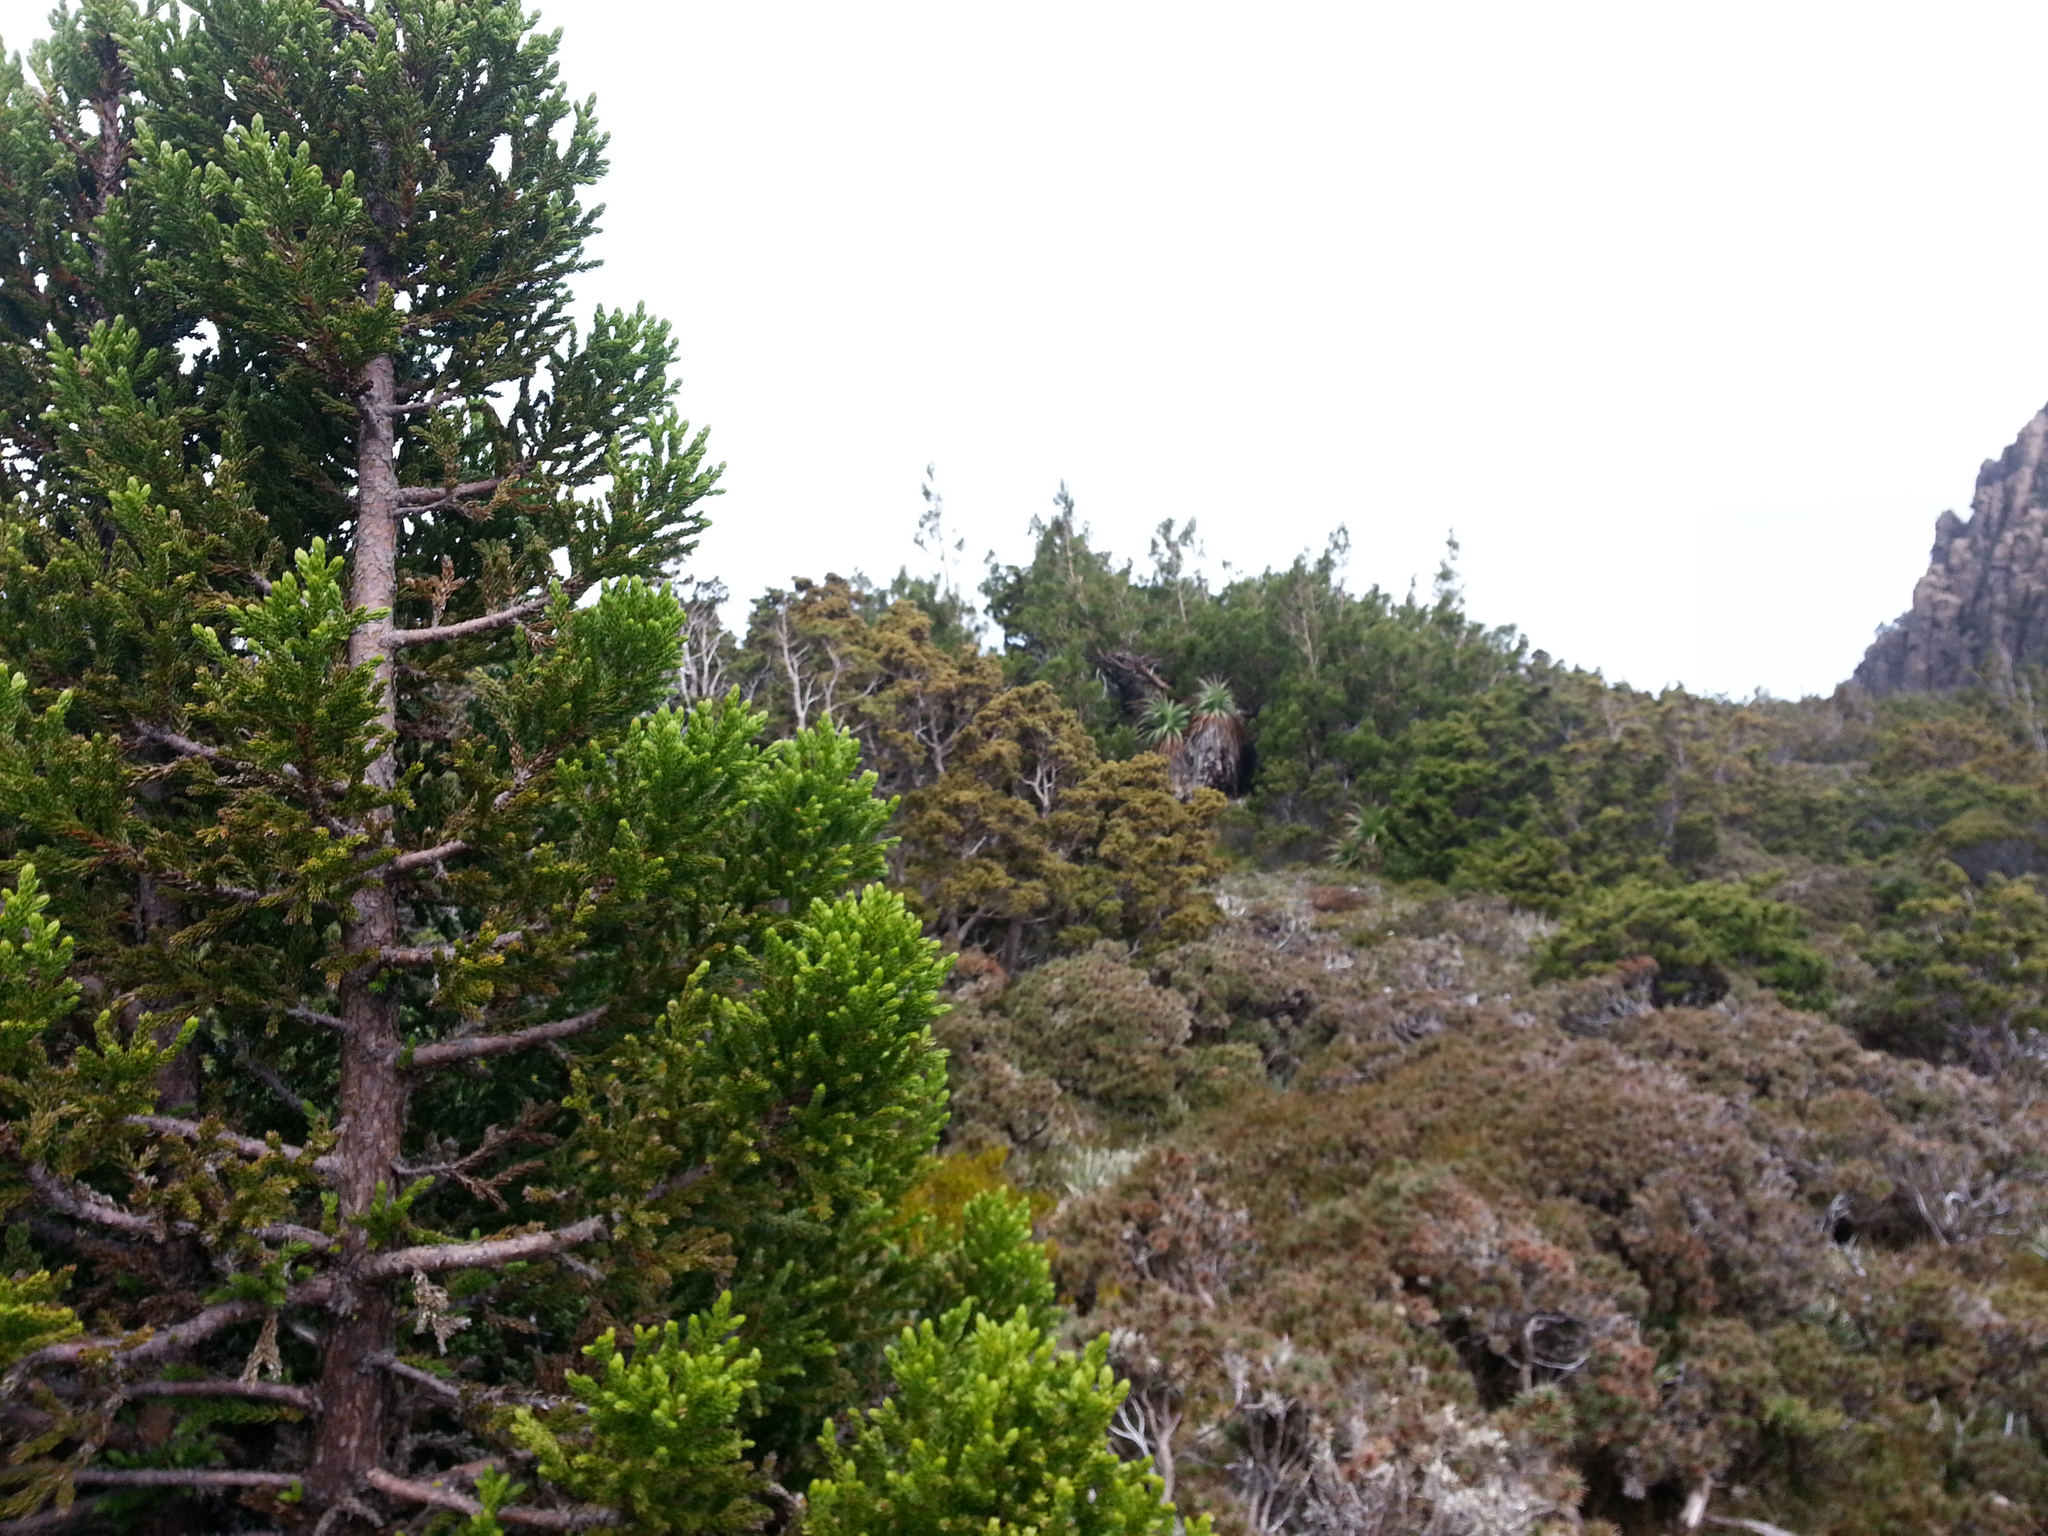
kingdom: Plantae
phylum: Tracheophyta
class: Pinopsida
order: Pinales
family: Cupressaceae
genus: Athrotaxis
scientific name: Athrotaxis selaginoides
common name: King william pine
